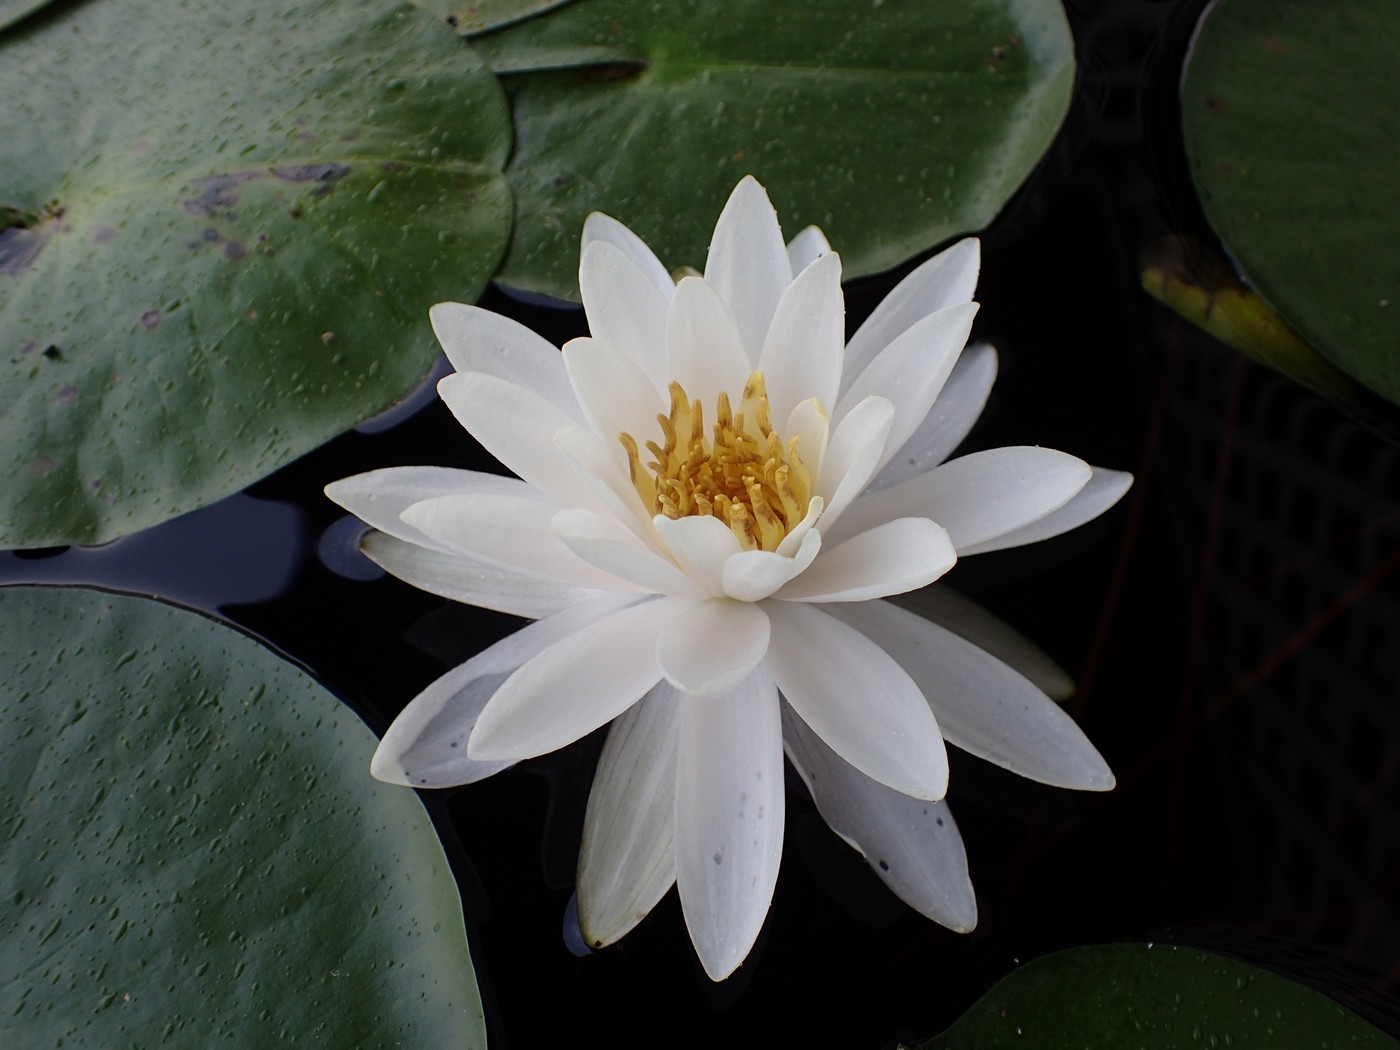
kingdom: Plantae
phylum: Tracheophyta
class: Magnoliopsida
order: Nymphaeales
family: Nymphaeaceae
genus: Nymphaea
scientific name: Nymphaea odorata
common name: Fragrant water-lily
